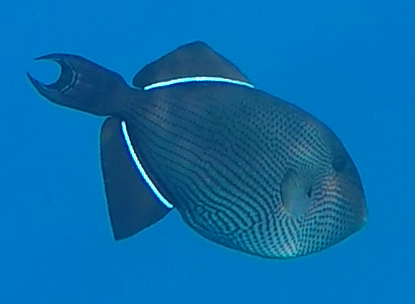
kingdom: Animalia
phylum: Chordata
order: Tetraodontiformes
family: Balistidae
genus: Melichthys
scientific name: Melichthys niger
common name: Black durgon
